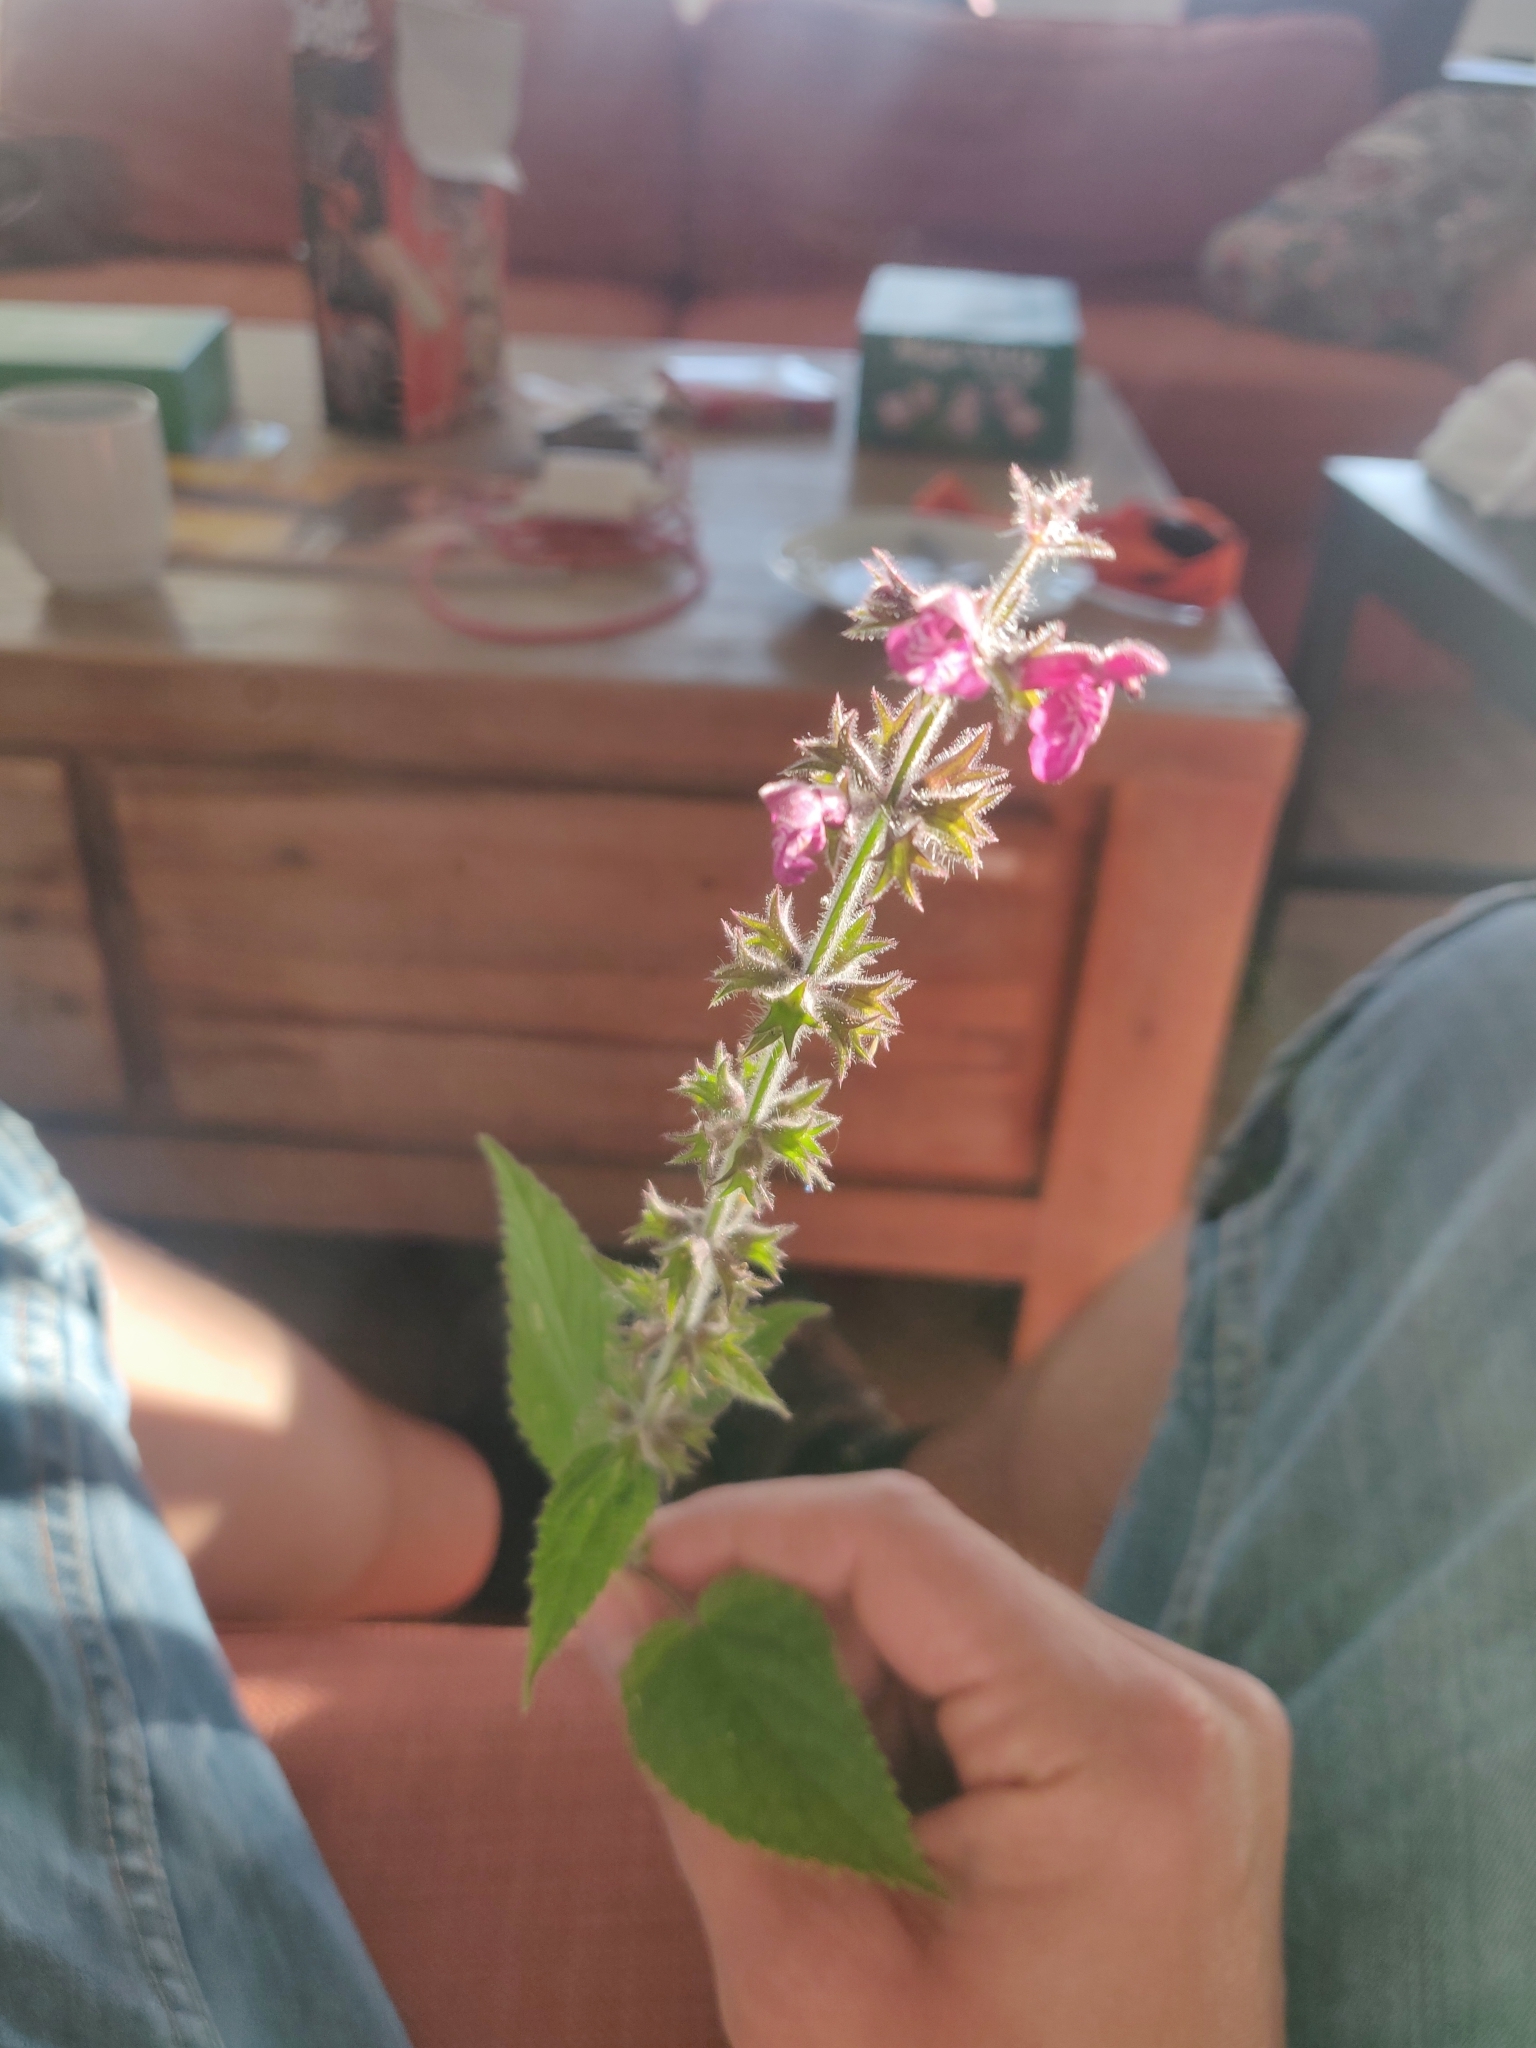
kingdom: Plantae
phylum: Tracheophyta
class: Magnoliopsida
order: Lamiales
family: Lamiaceae
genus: Stachys
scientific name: Stachys sylvatica
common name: Hedge woundwort
